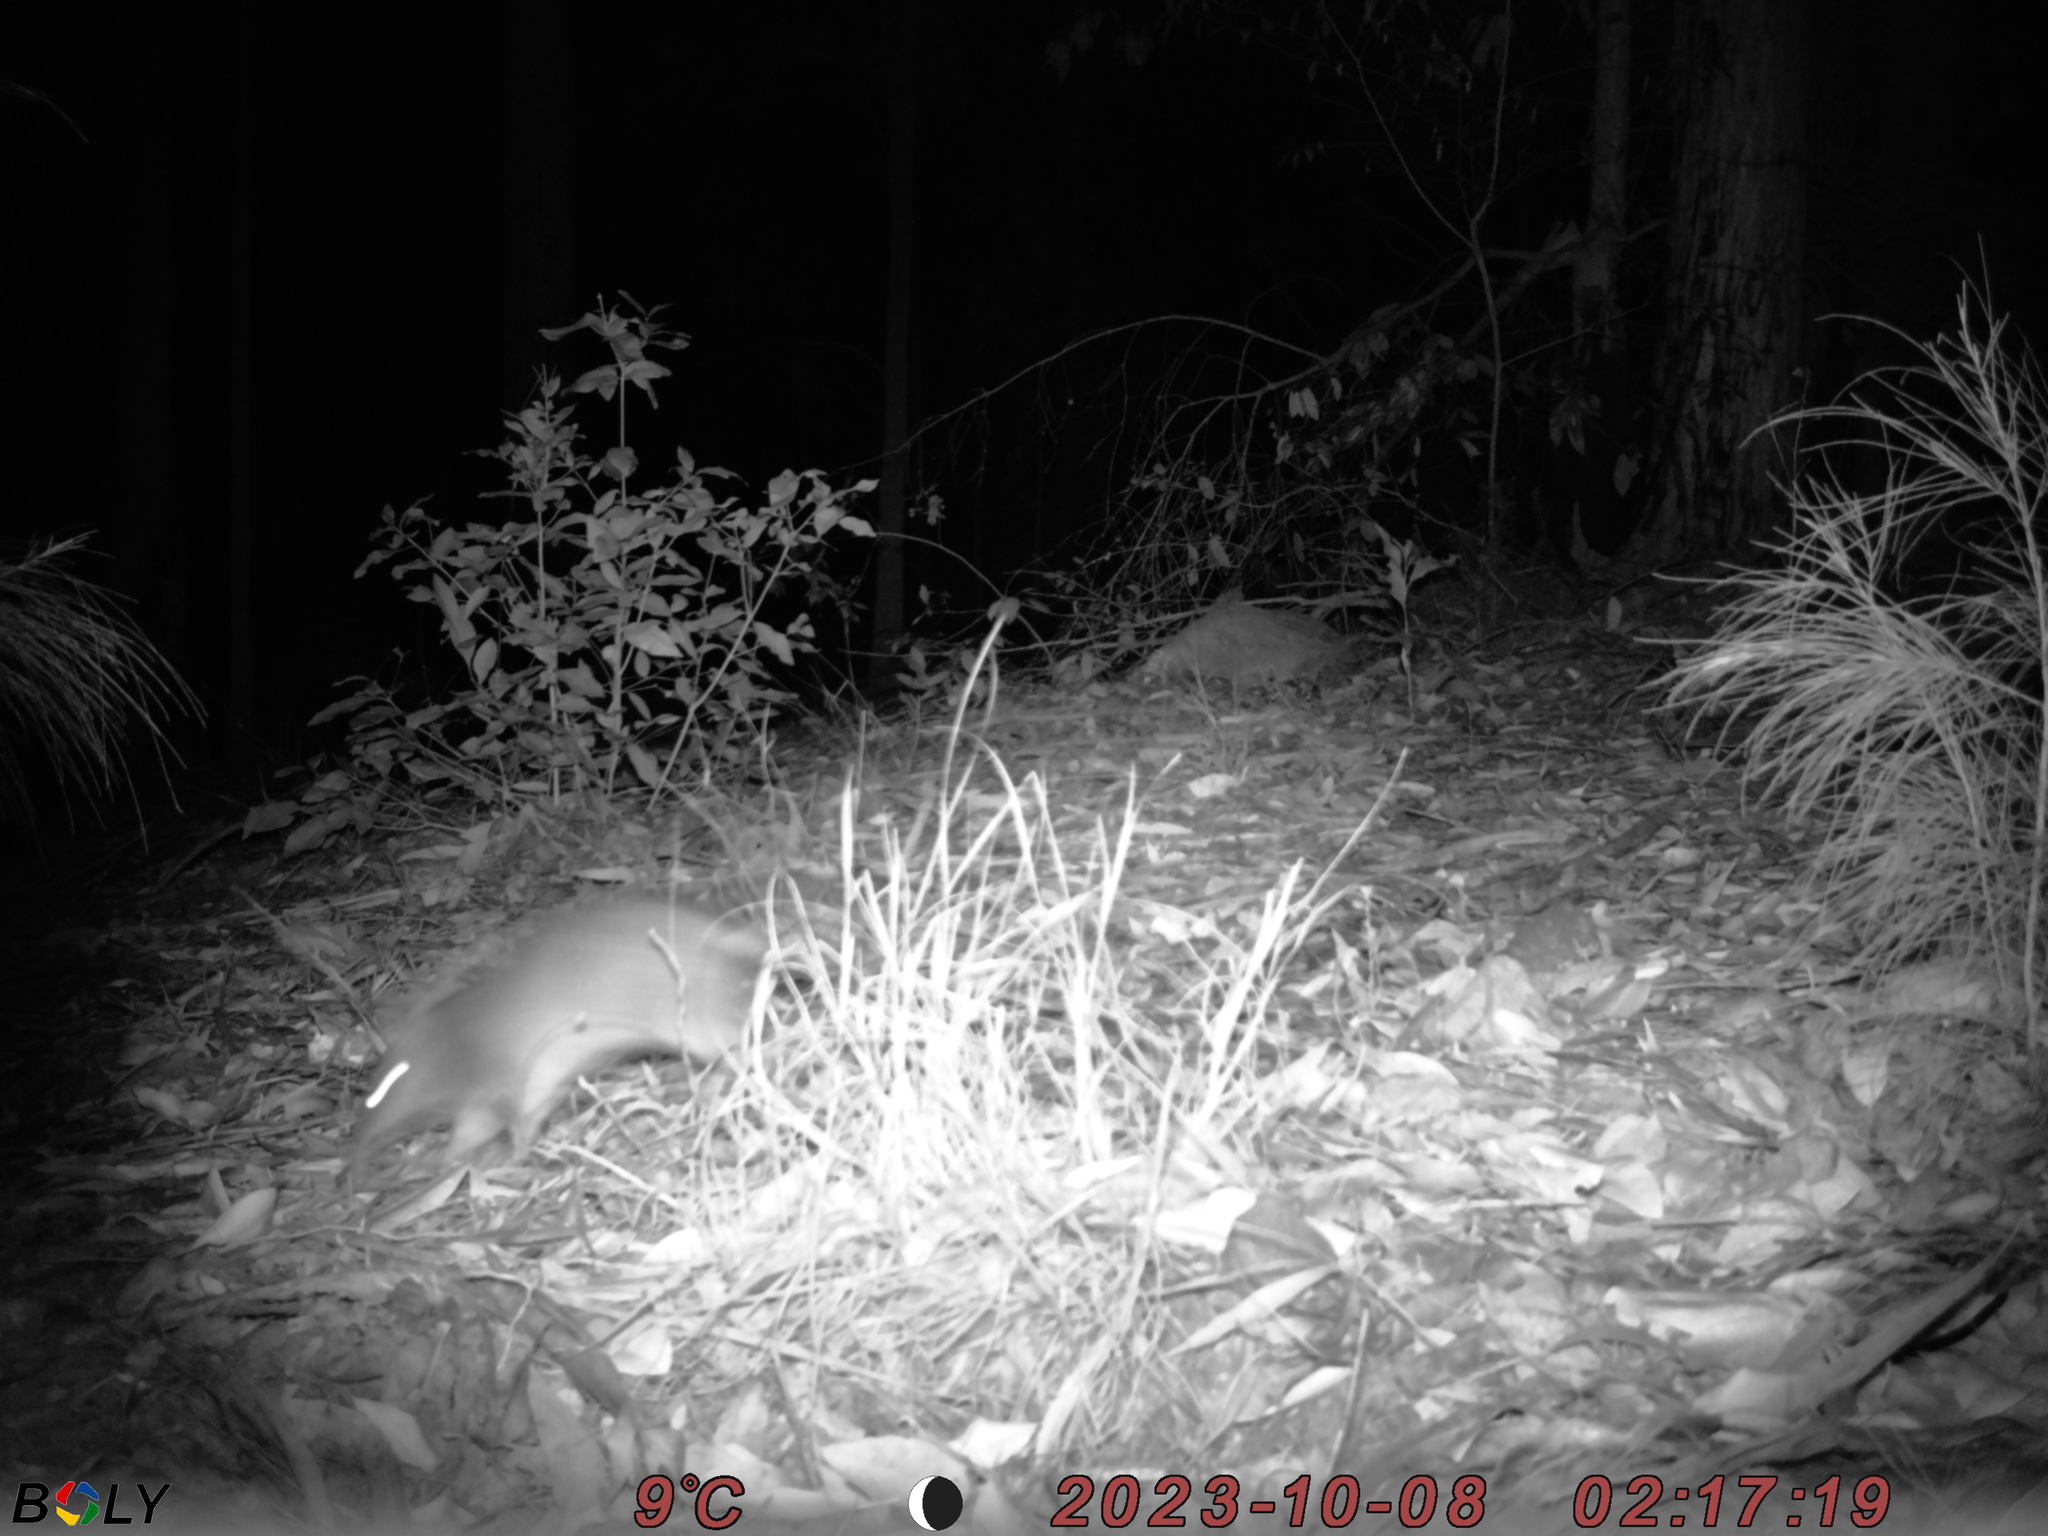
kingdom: Animalia
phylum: Chordata
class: Mammalia
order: Peramelemorphia
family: Peramelidae
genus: Perameles
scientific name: Perameles nasuta
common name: Long-nosed bandicoot
